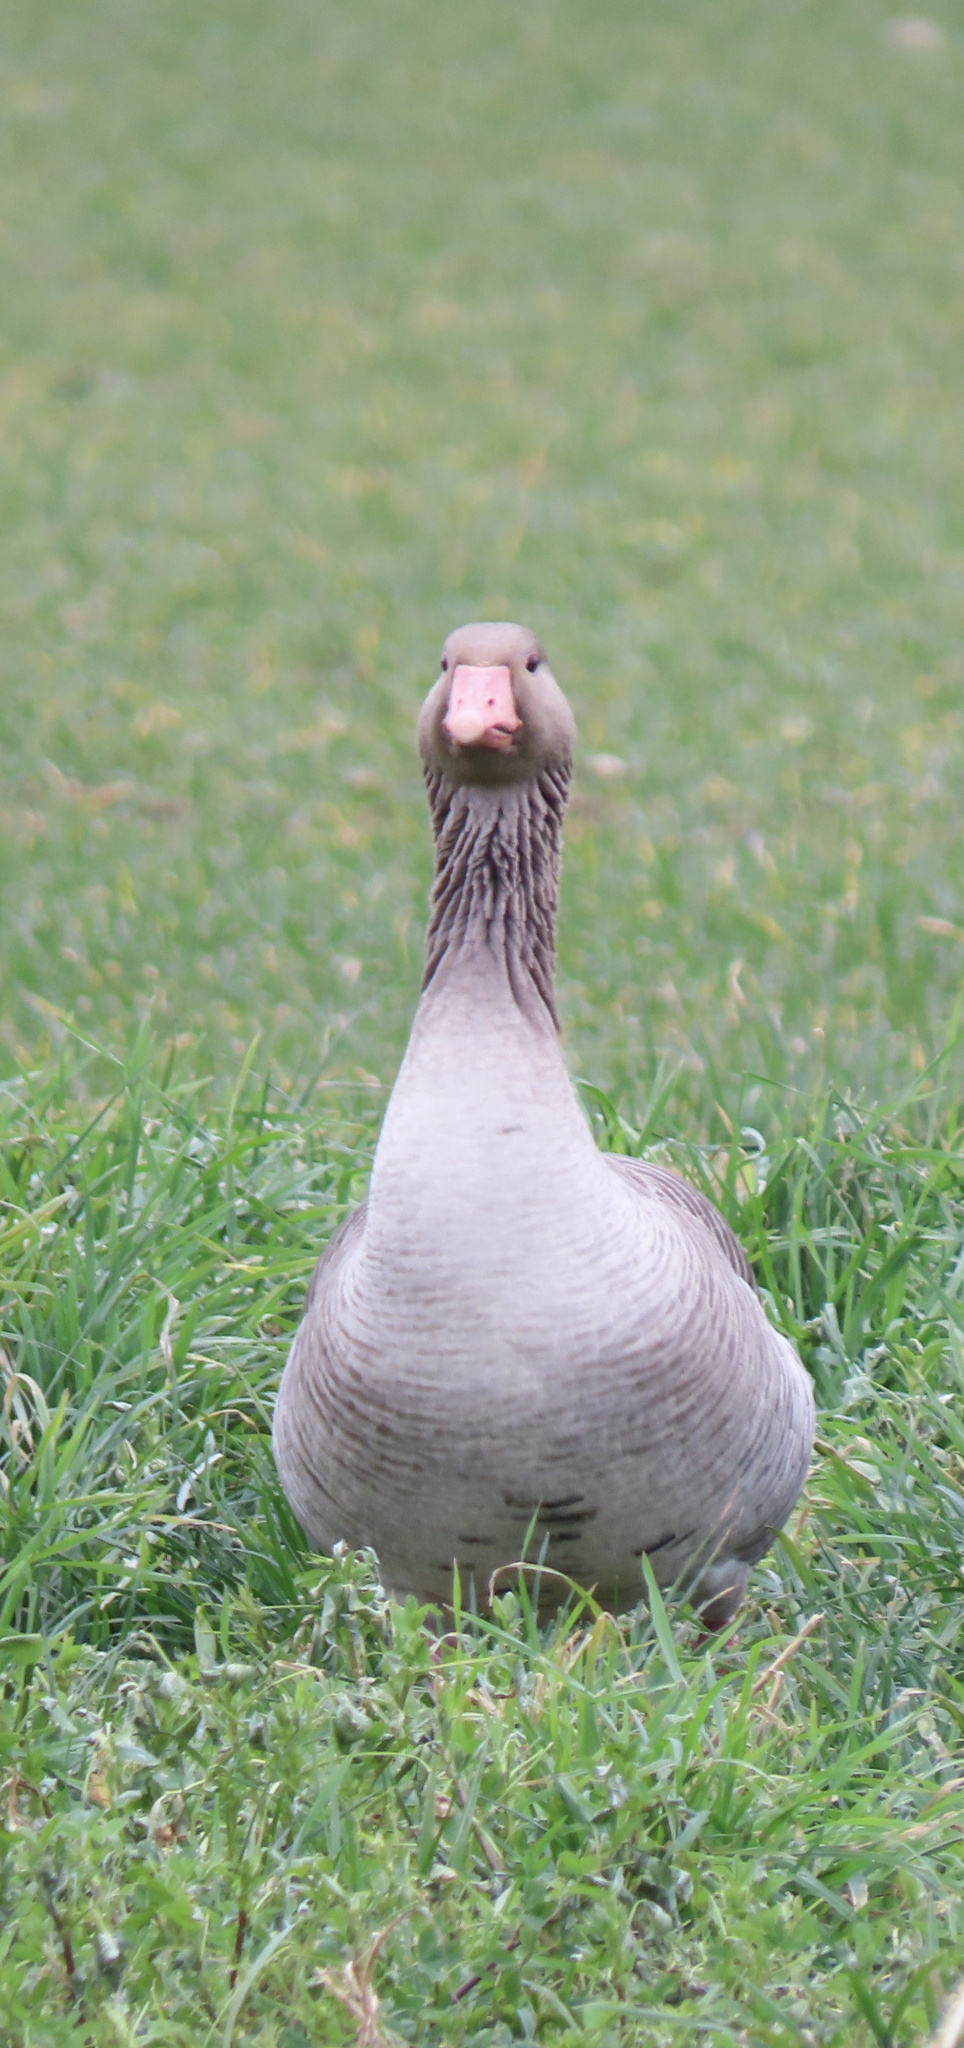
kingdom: Animalia
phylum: Chordata
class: Aves
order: Anseriformes
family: Anatidae
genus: Anser
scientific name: Anser anser
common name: Greylag goose
